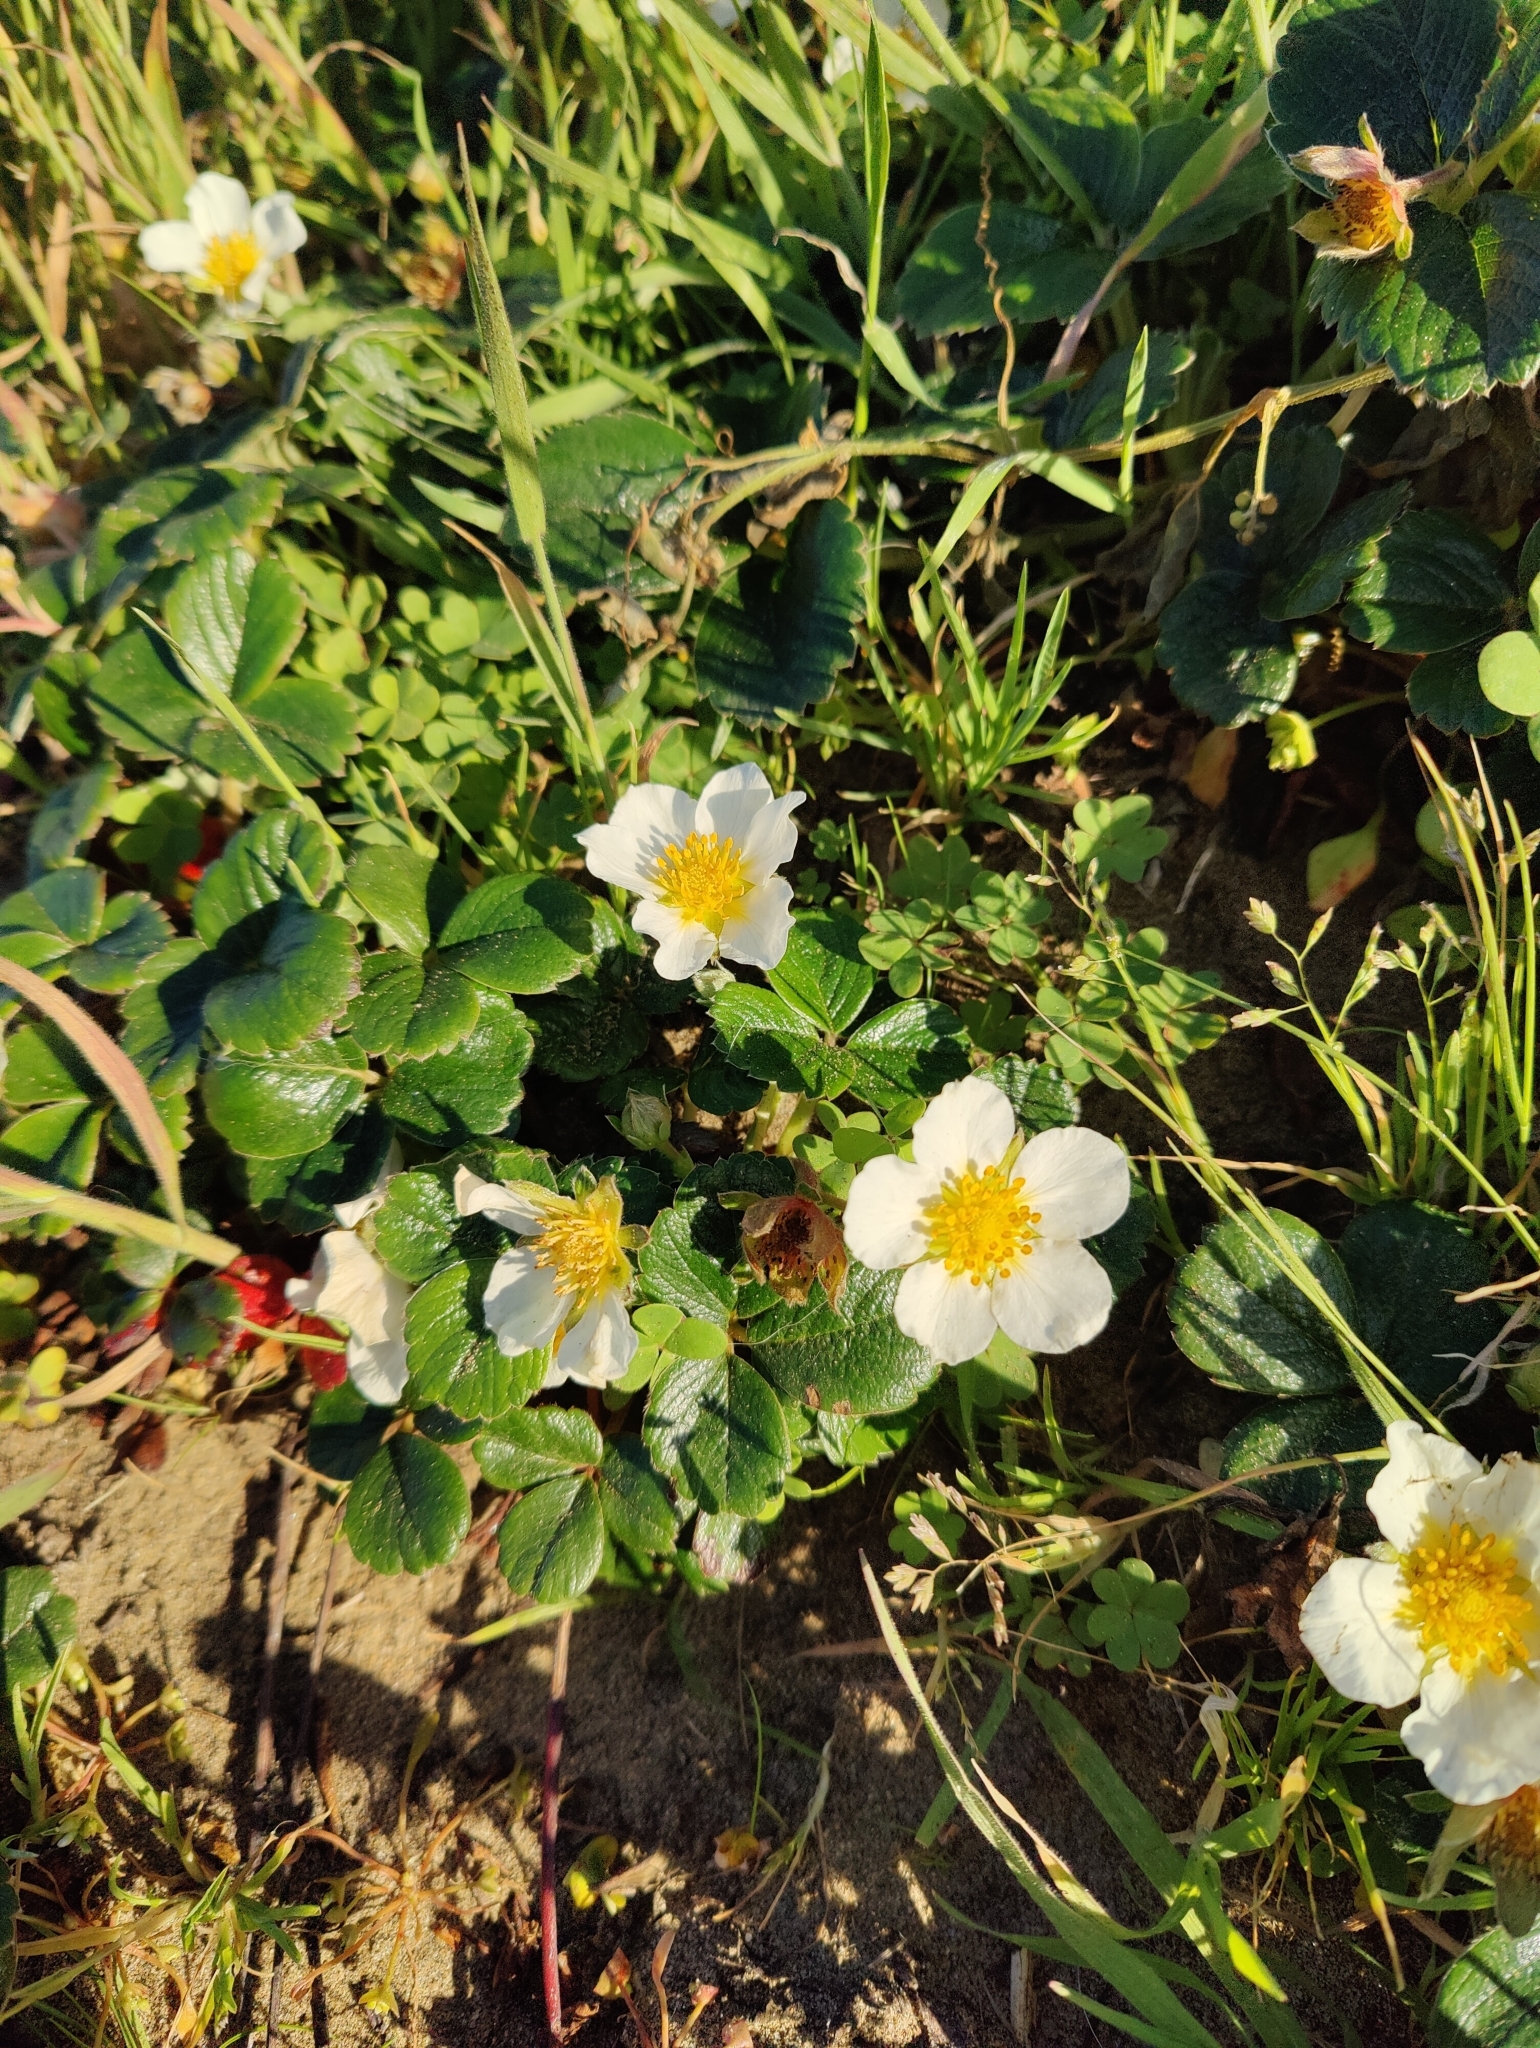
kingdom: Plantae
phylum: Tracheophyta
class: Magnoliopsida
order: Rosales
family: Rosaceae
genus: Fragaria
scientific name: Fragaria chiloensis
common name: Beach strawberry
